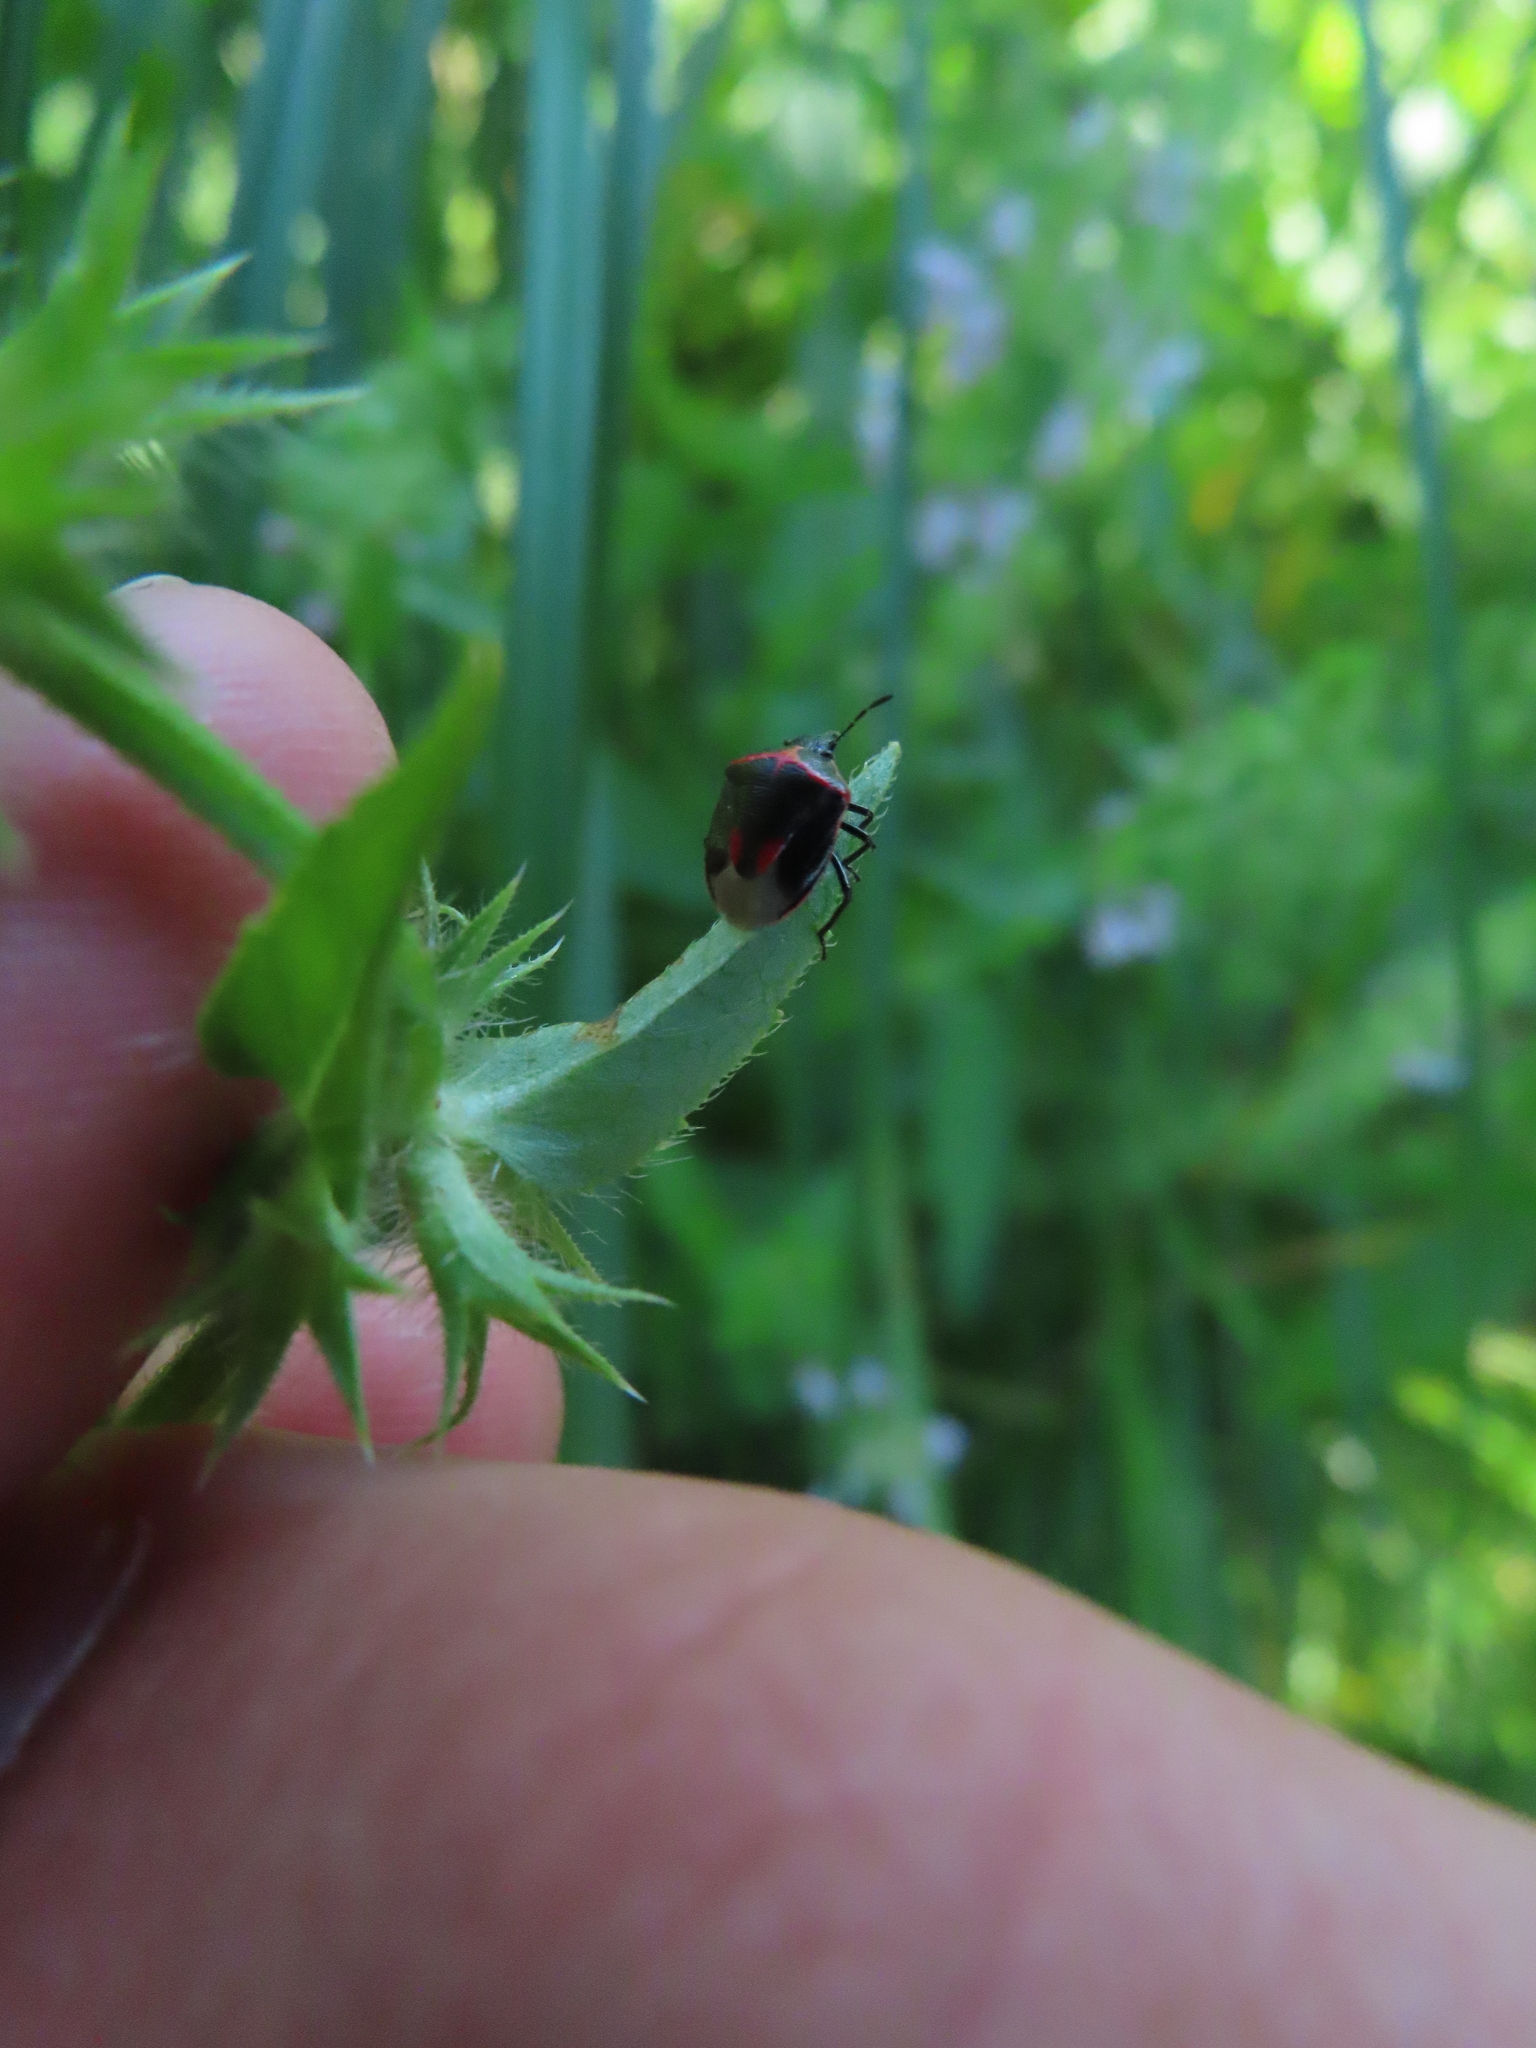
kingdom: Animalia
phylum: Arthropoda
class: Insecta
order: Hemiptera
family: Pentatomidae
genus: Cosmopepla
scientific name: Cosmopepla lintneriana
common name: Twice-stabbed stink bug
